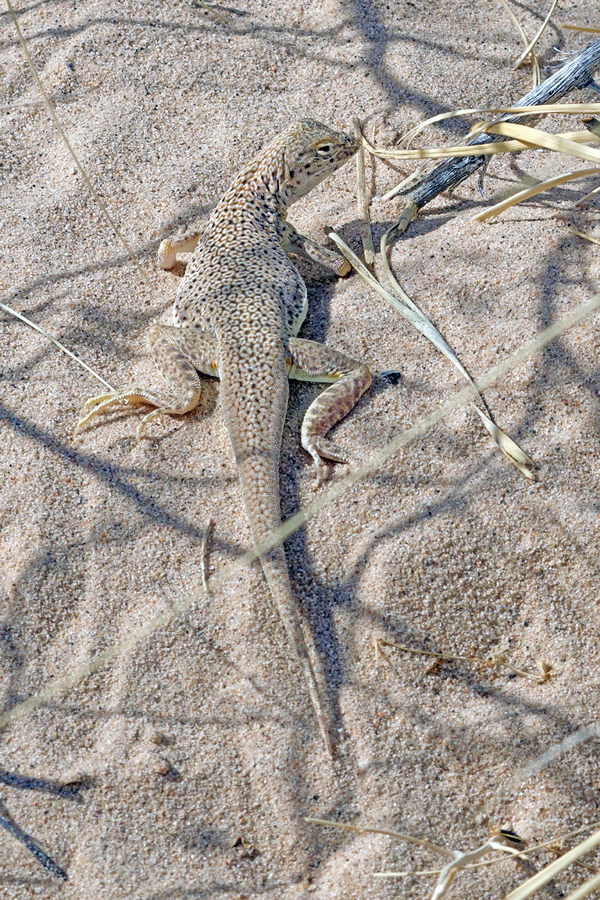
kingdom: Animalia
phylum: Chordata
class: Squamata
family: Phrynosomatidae
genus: Uma
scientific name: Uma scoparia
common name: Mojave fringe-toed lizard
